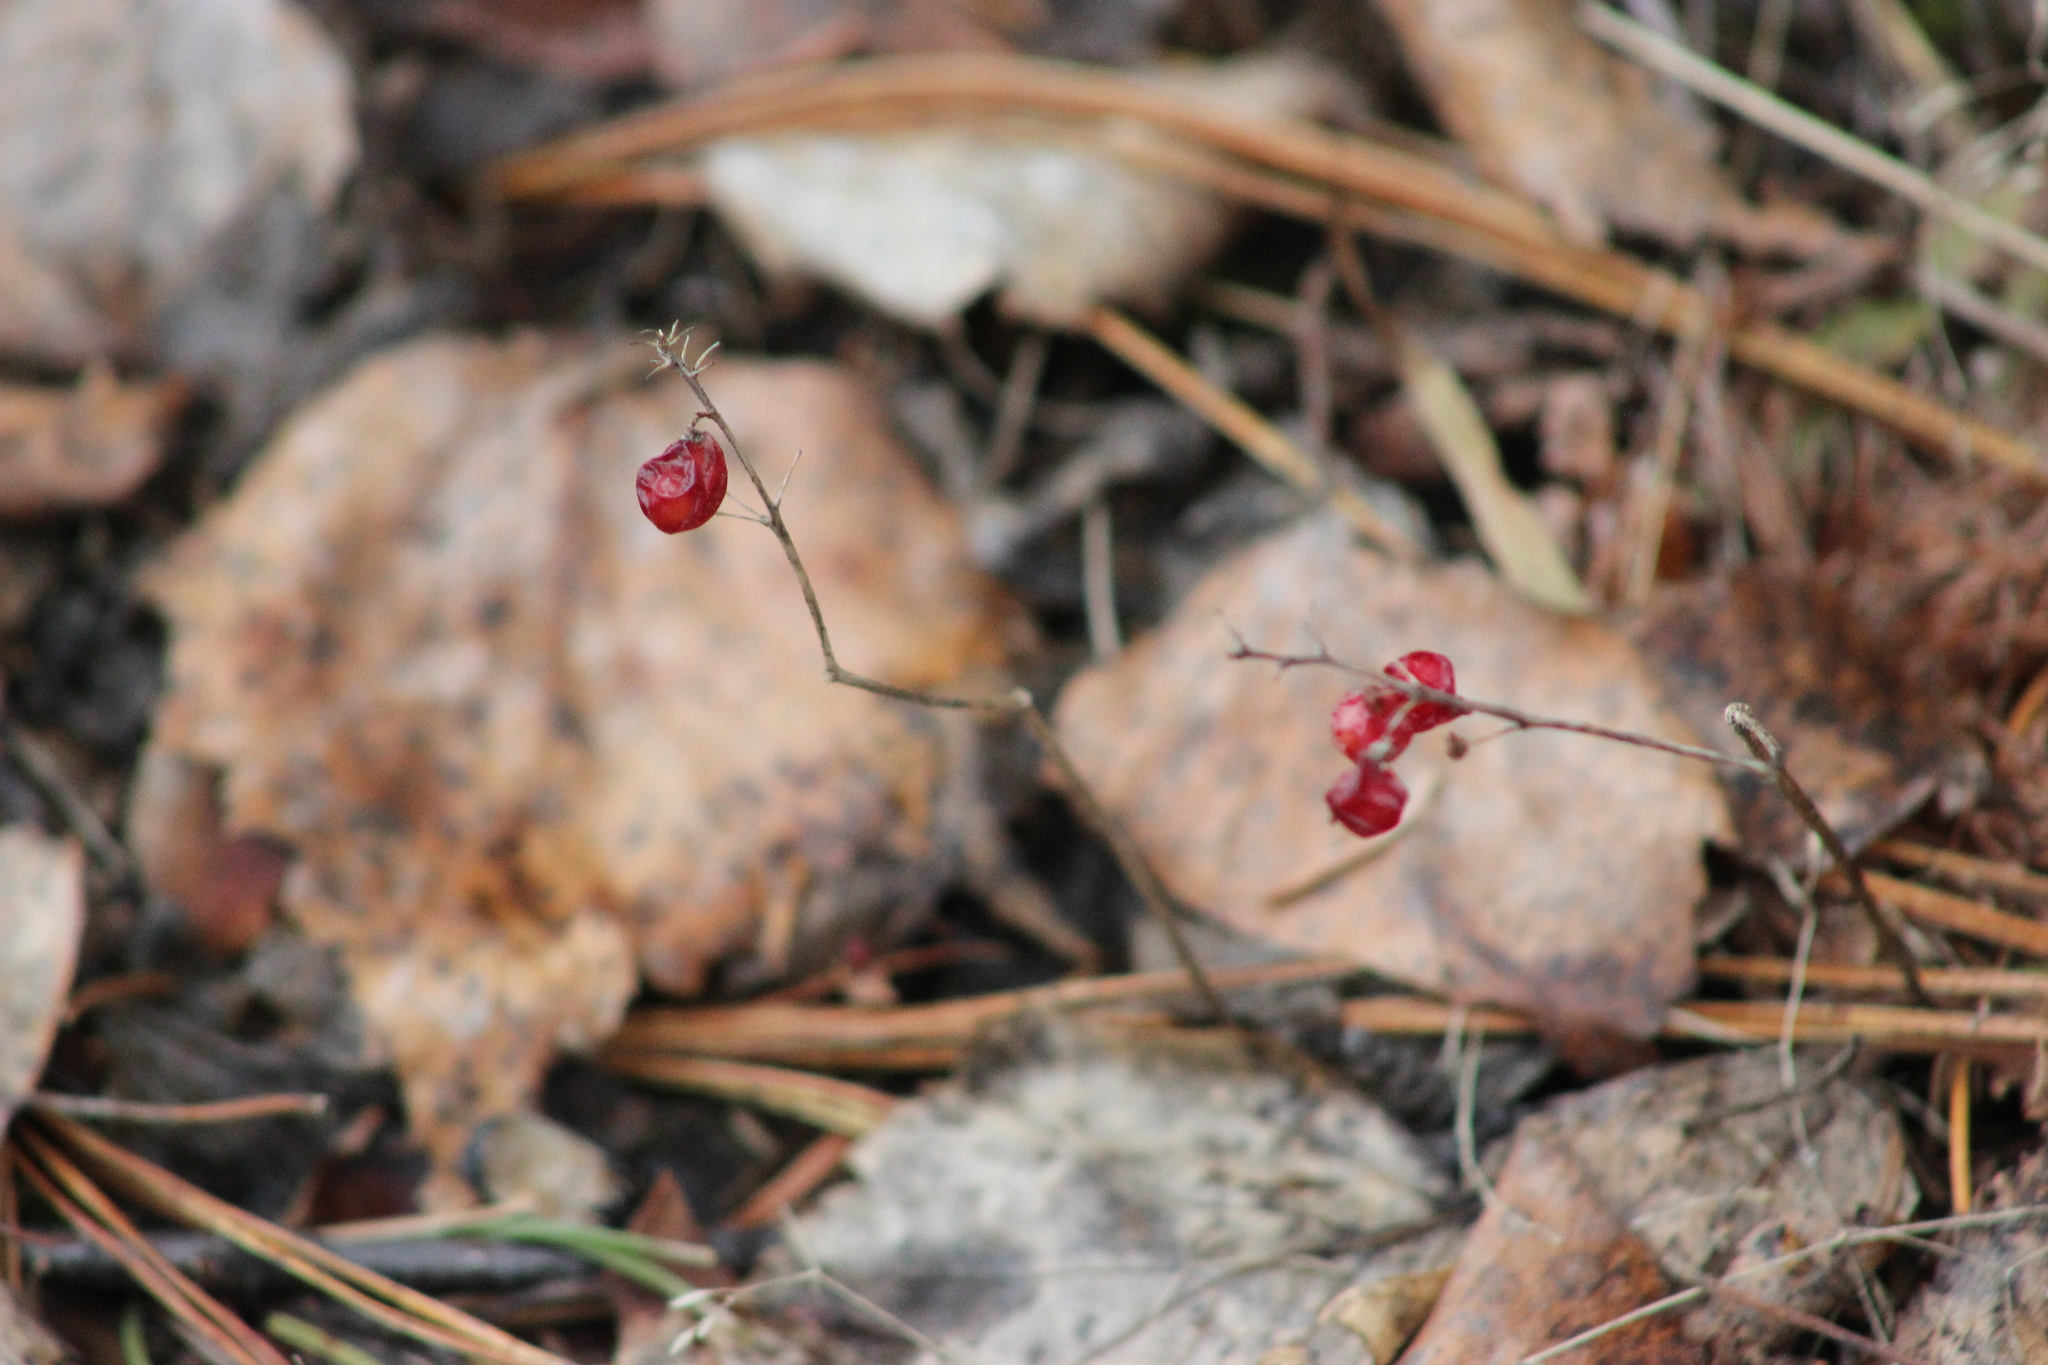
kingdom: Plantae
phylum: Tracheophyta
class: Liliopsida
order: Asparagales
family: Asparagaceae
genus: Maianthemum
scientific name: Maianthemum bifolium
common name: May lily
